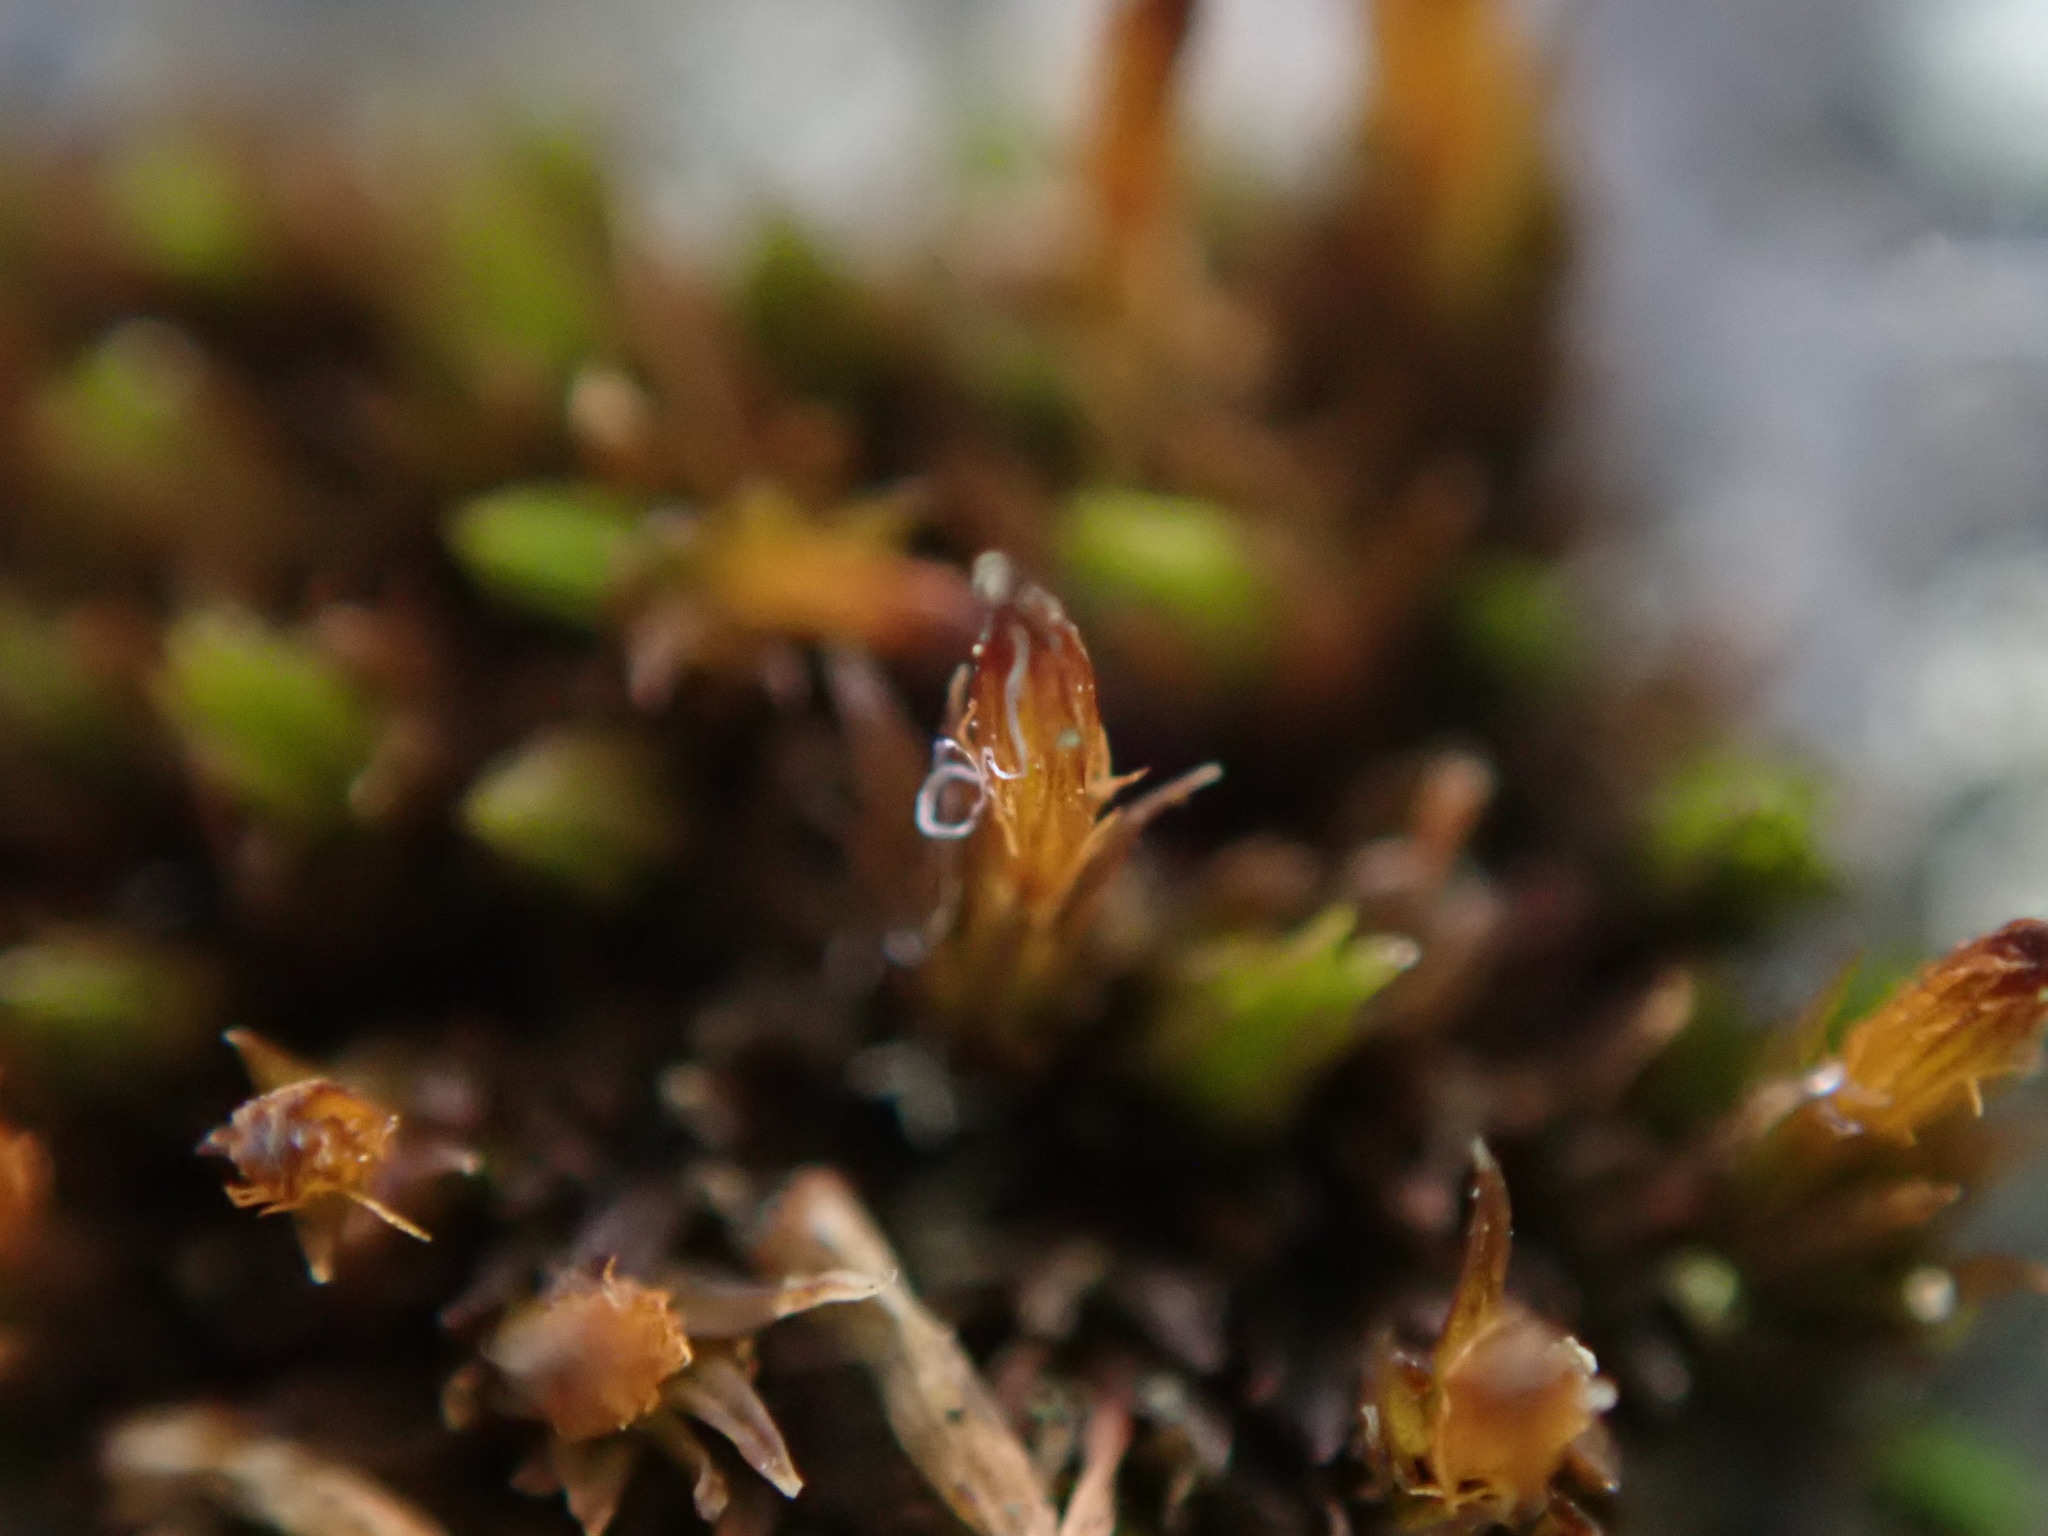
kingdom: Plantae
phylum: Bryophyta
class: Bryopsida
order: Orthotrichales
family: Orthotrichaceae
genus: Orthotrichum
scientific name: Orthotrichum anomalum
